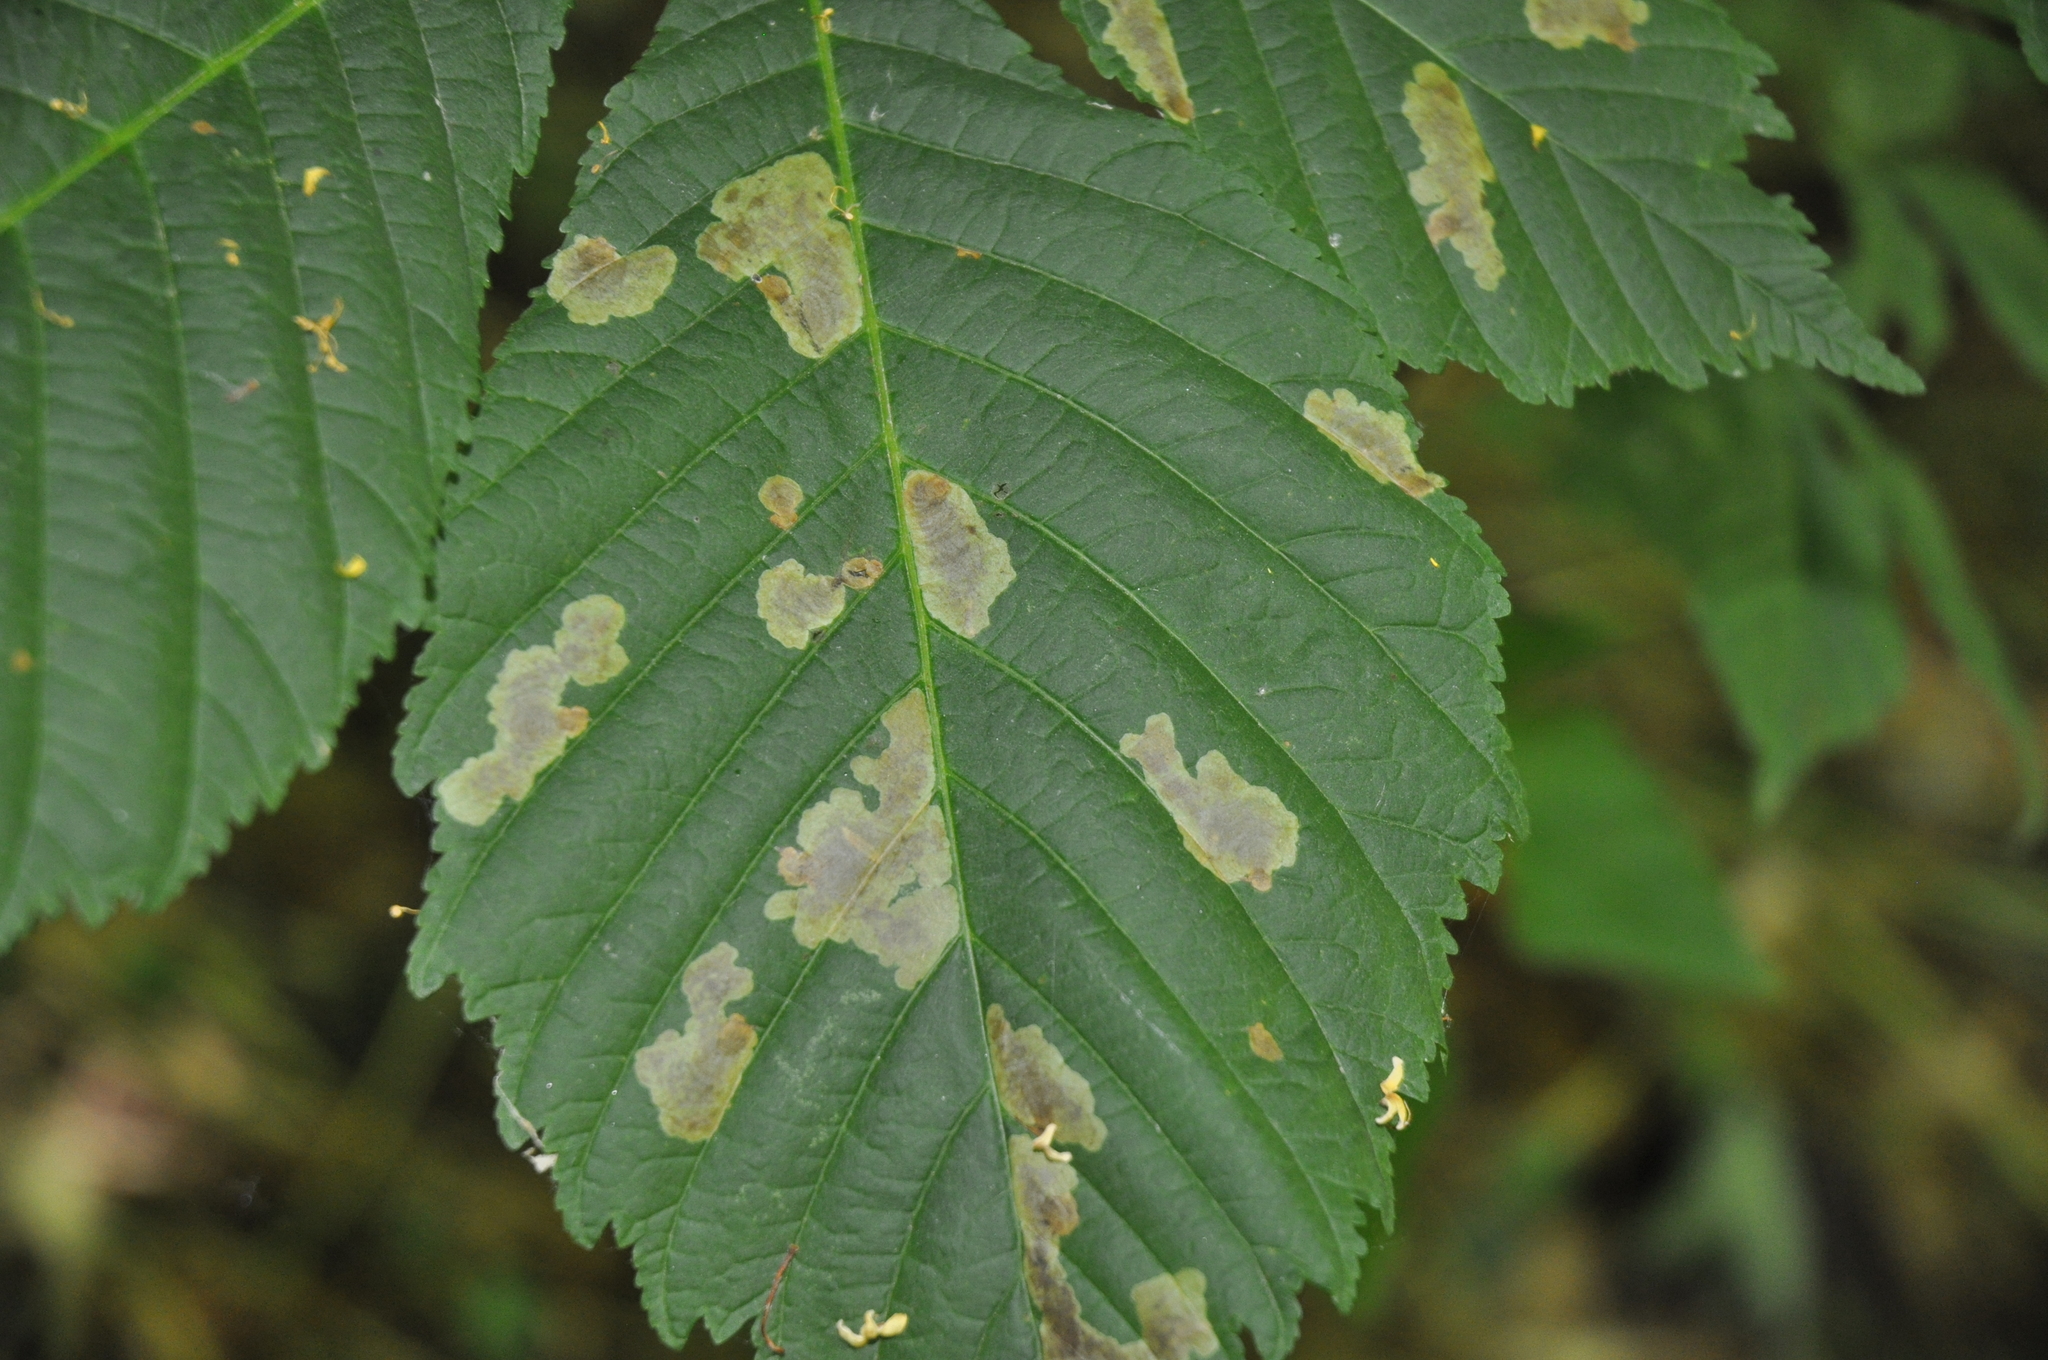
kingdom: Animalia
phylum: Arthropoda
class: Insecta
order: Lepidoptera
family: Gracillariidae
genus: Cameraria
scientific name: Cameraria ohridella
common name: Horse-chestnut leaf-miner
